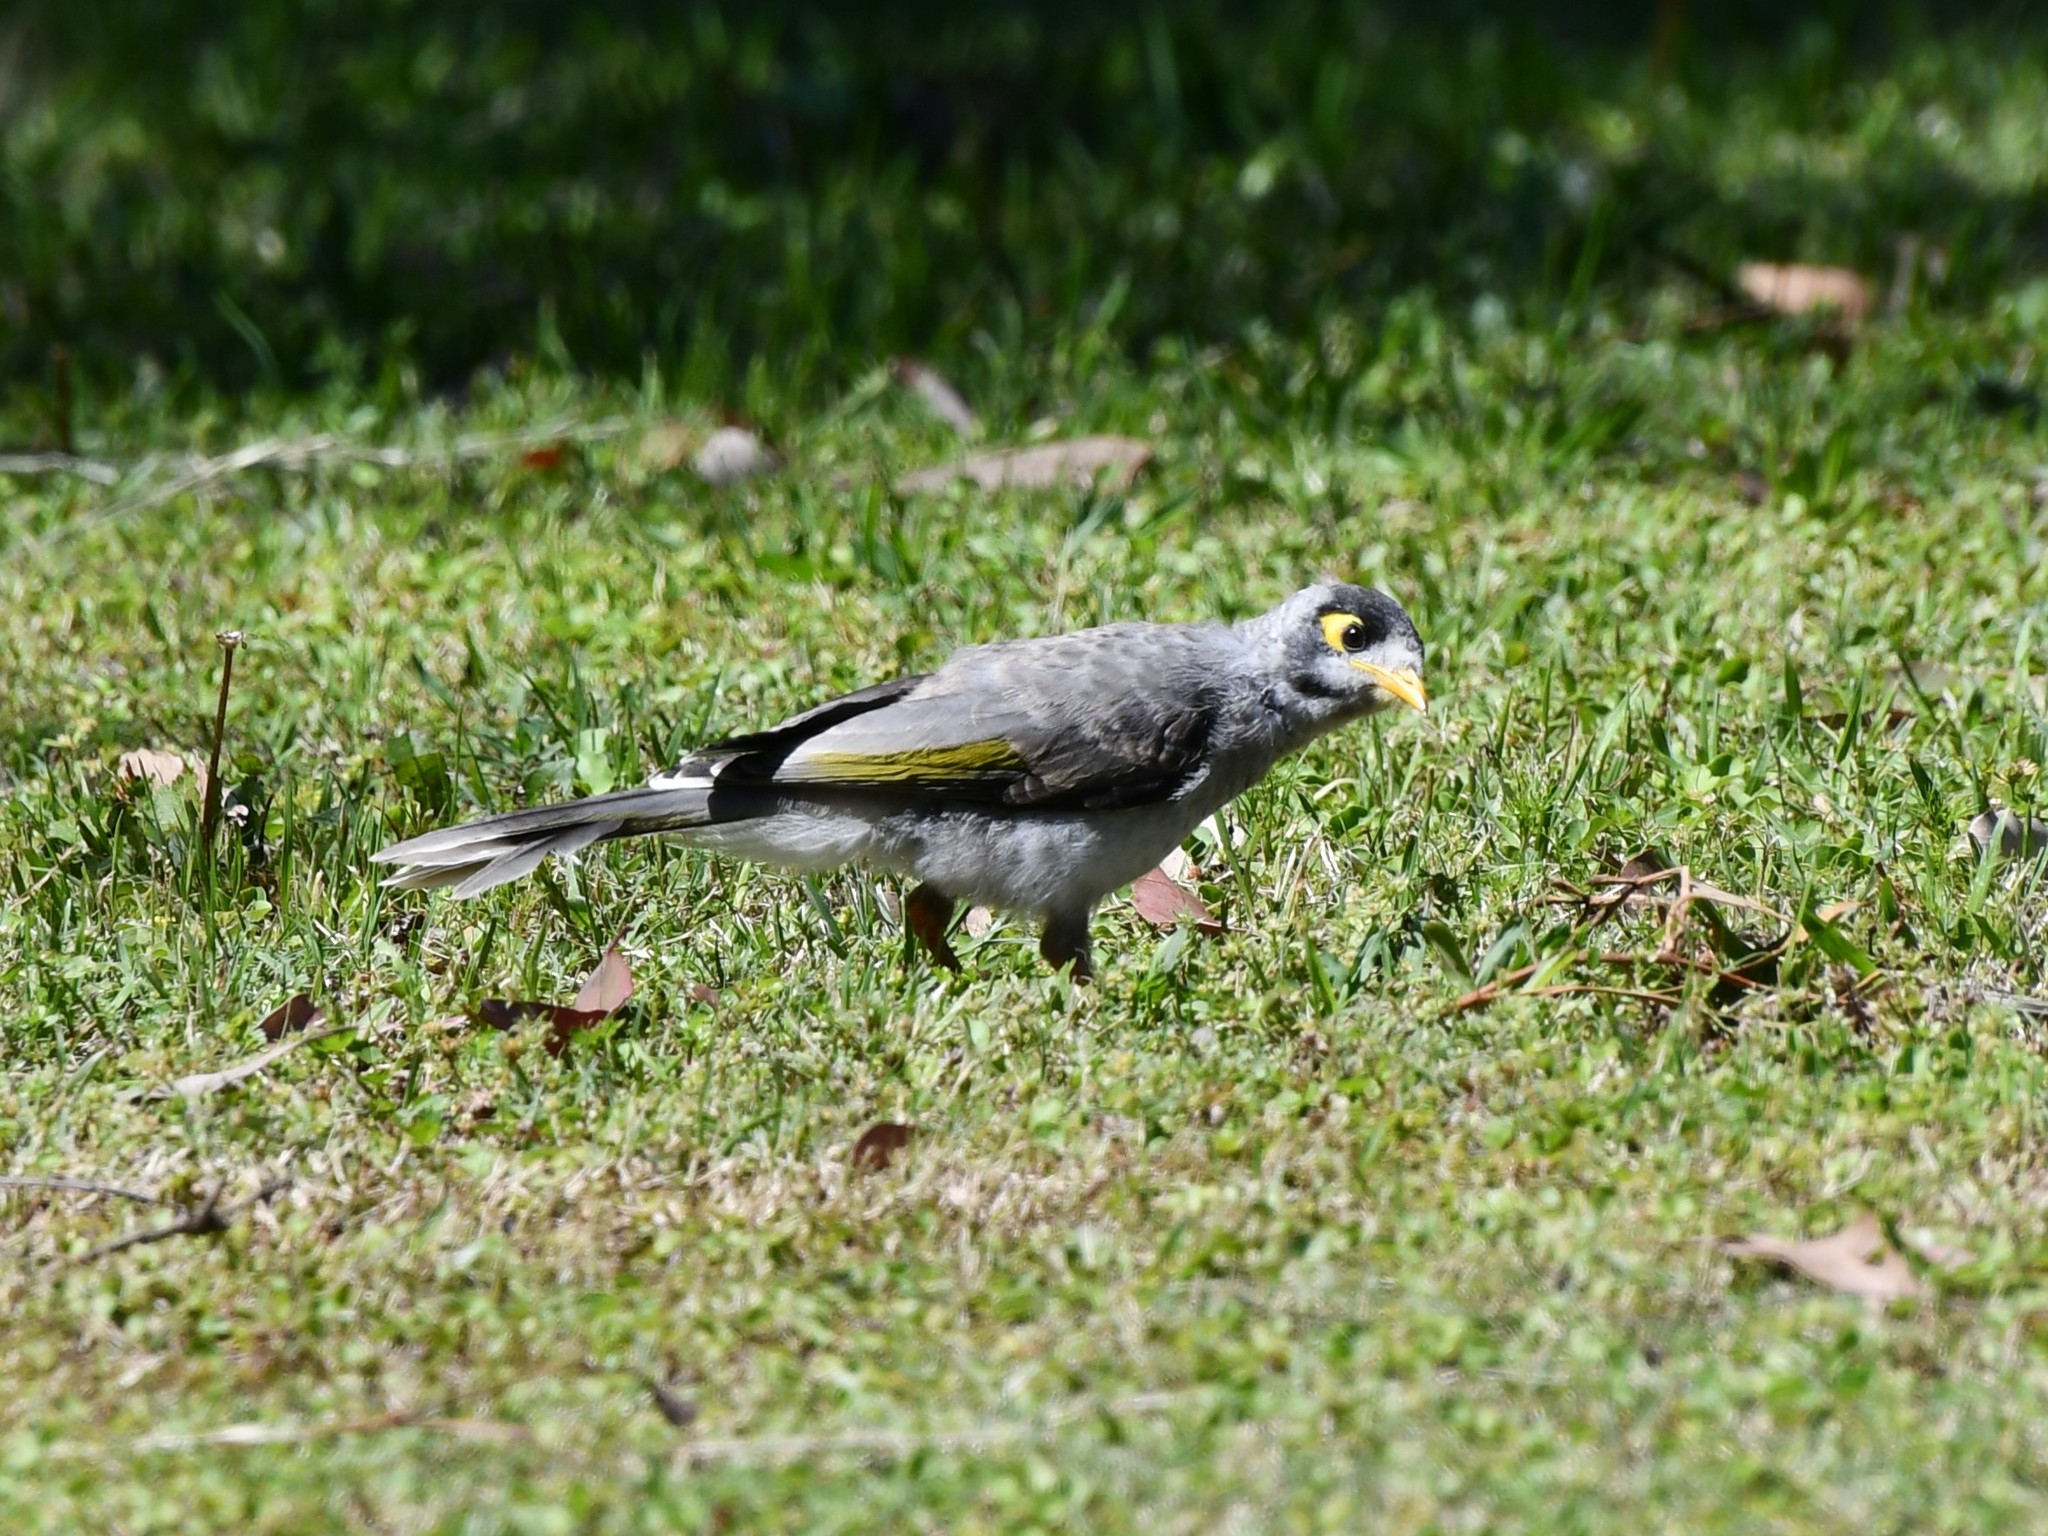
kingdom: Animalia
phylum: Chordata
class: Aves
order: Passeriformes
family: Meliphagidae
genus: Manorina
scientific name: Manorina melanocephala
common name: Noisy miner
